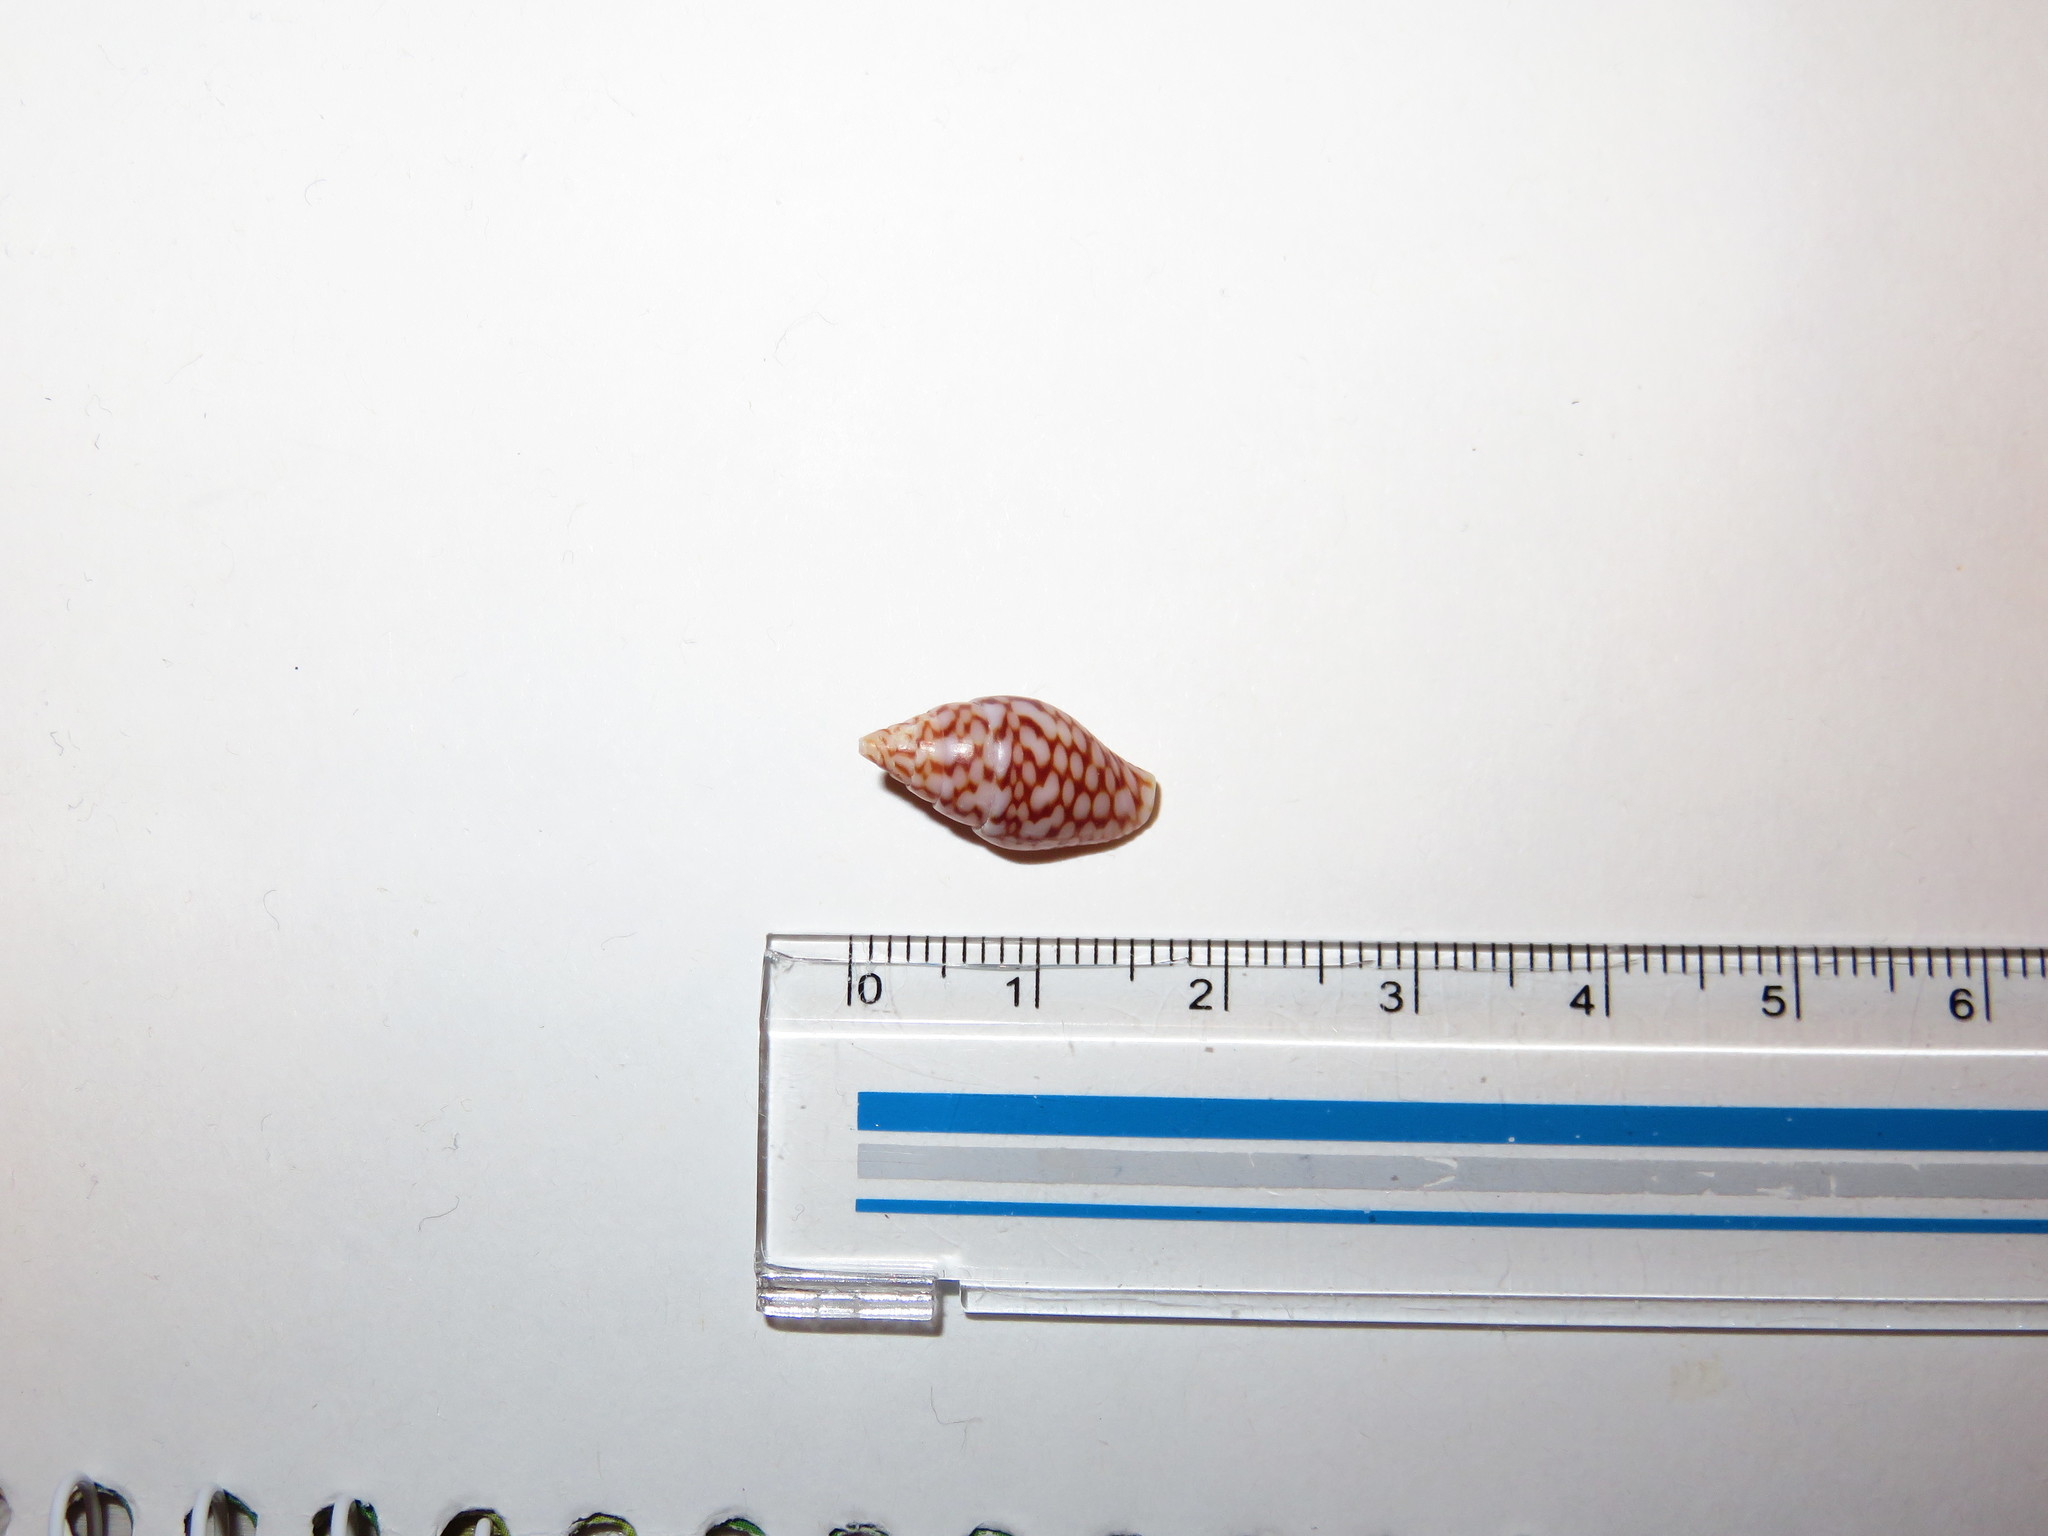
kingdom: Animalia
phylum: Mollusca
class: Gastropoda
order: Neogastropoda
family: Columbellidae
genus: Pardalinops de
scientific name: Pardalinops de Pardalinops testudinaria
